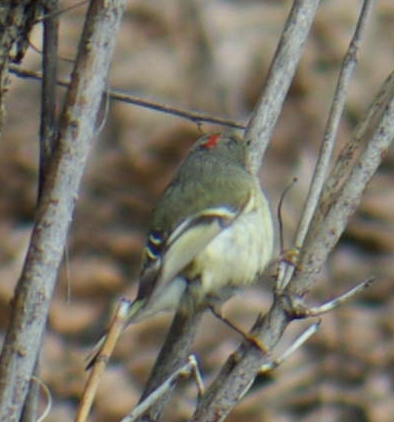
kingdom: Animalia
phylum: Chordata
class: Aves
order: Passeriformes
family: Regulidae
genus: Regulus
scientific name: Regulus calendula
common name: Ruby-crowned kinglet
